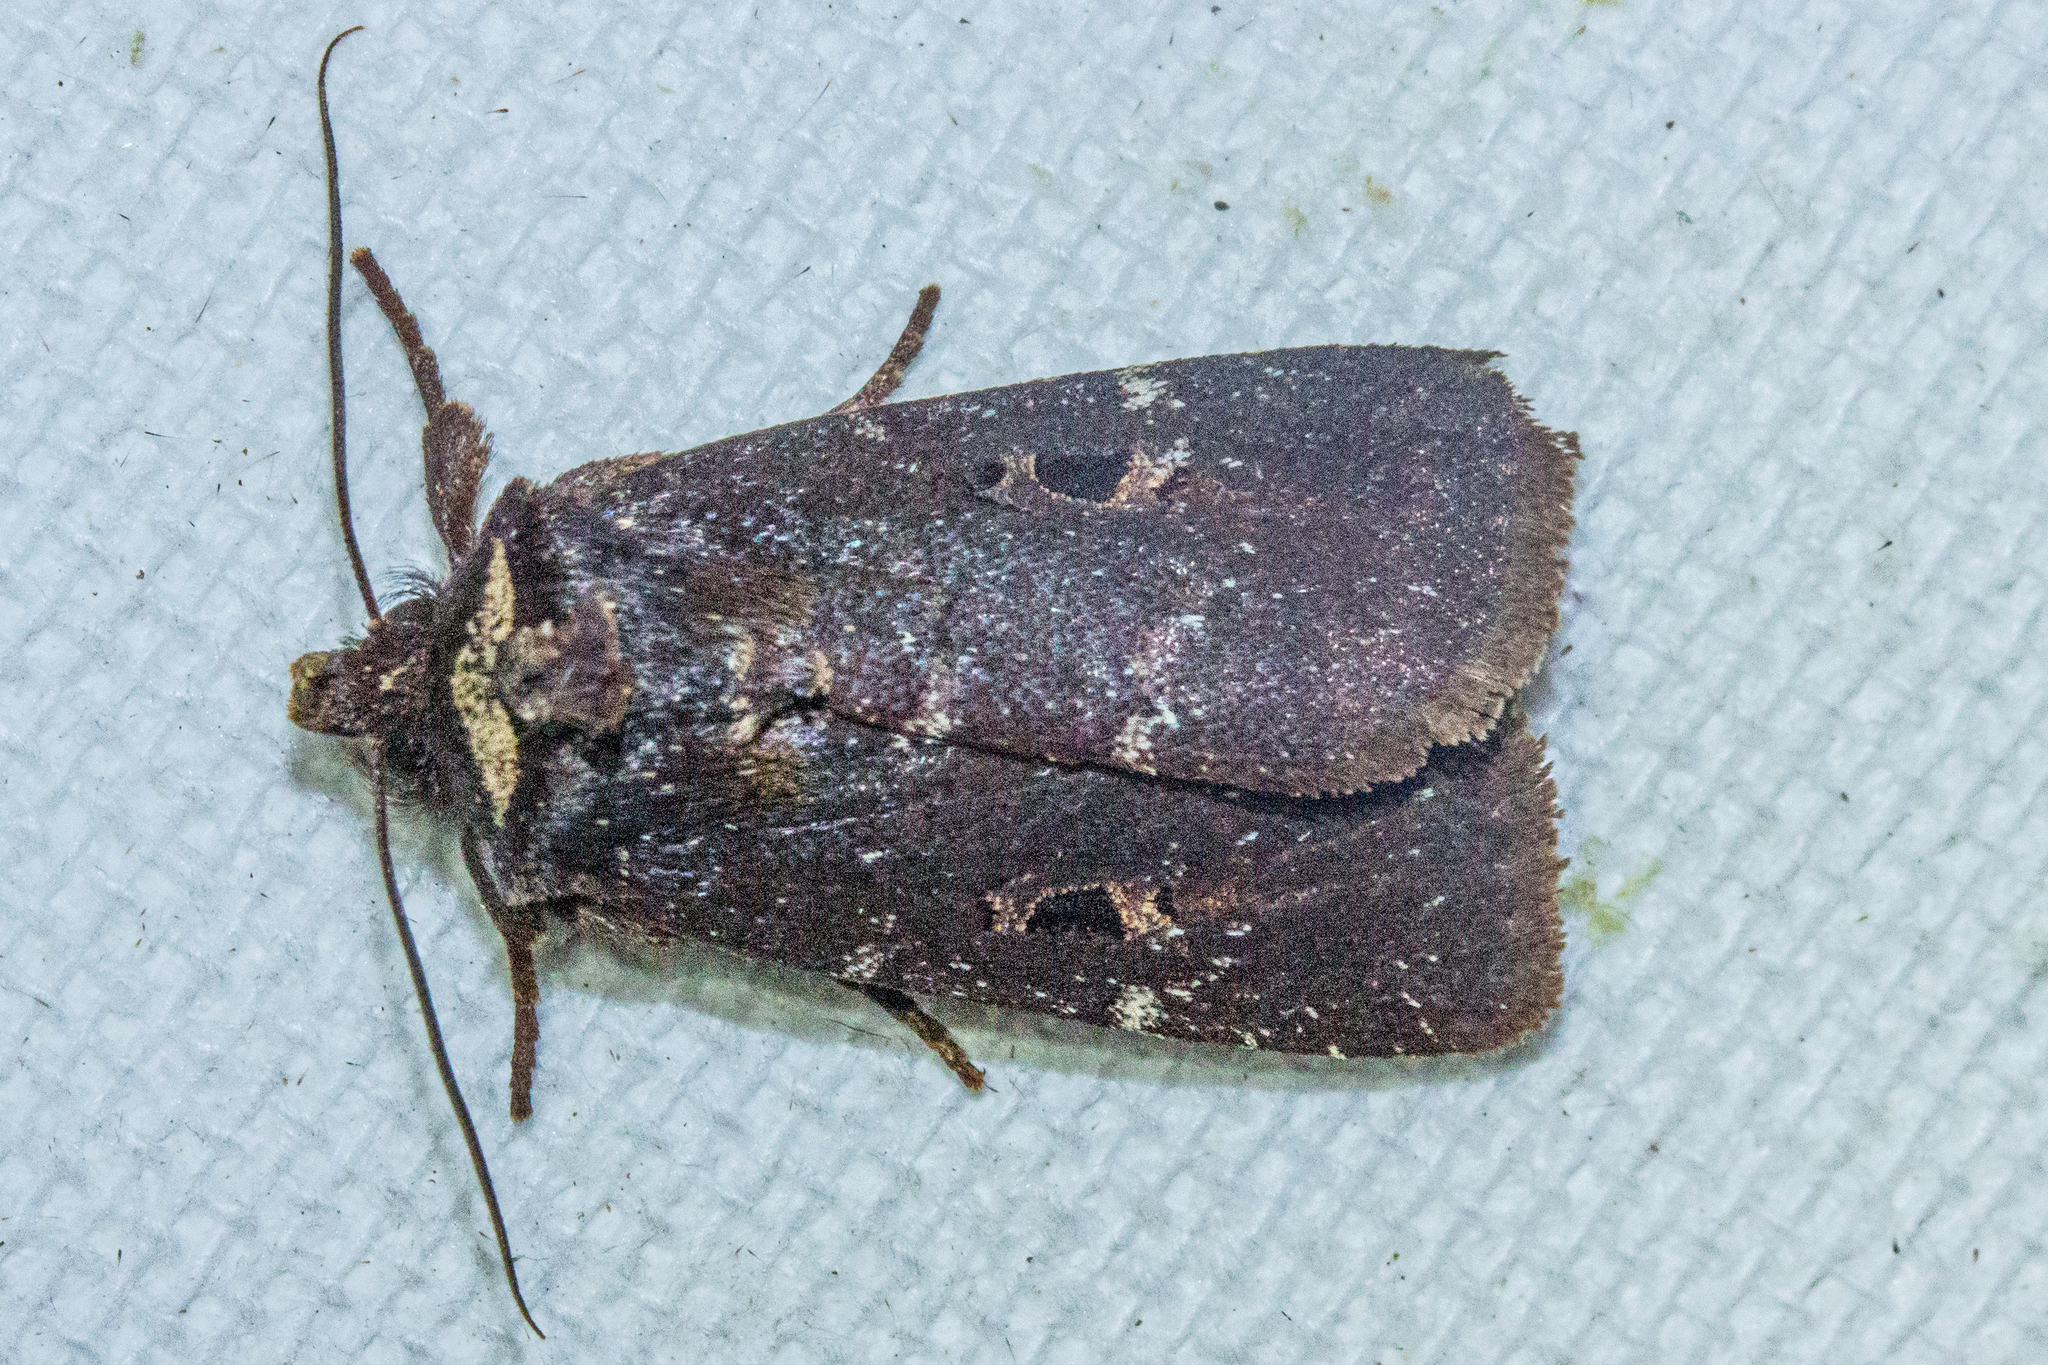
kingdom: Animalia
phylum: Arthropoda
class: Insecta
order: Lepidoptera
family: Noctuidae
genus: Austramathes
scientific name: Austramathes purpurea
